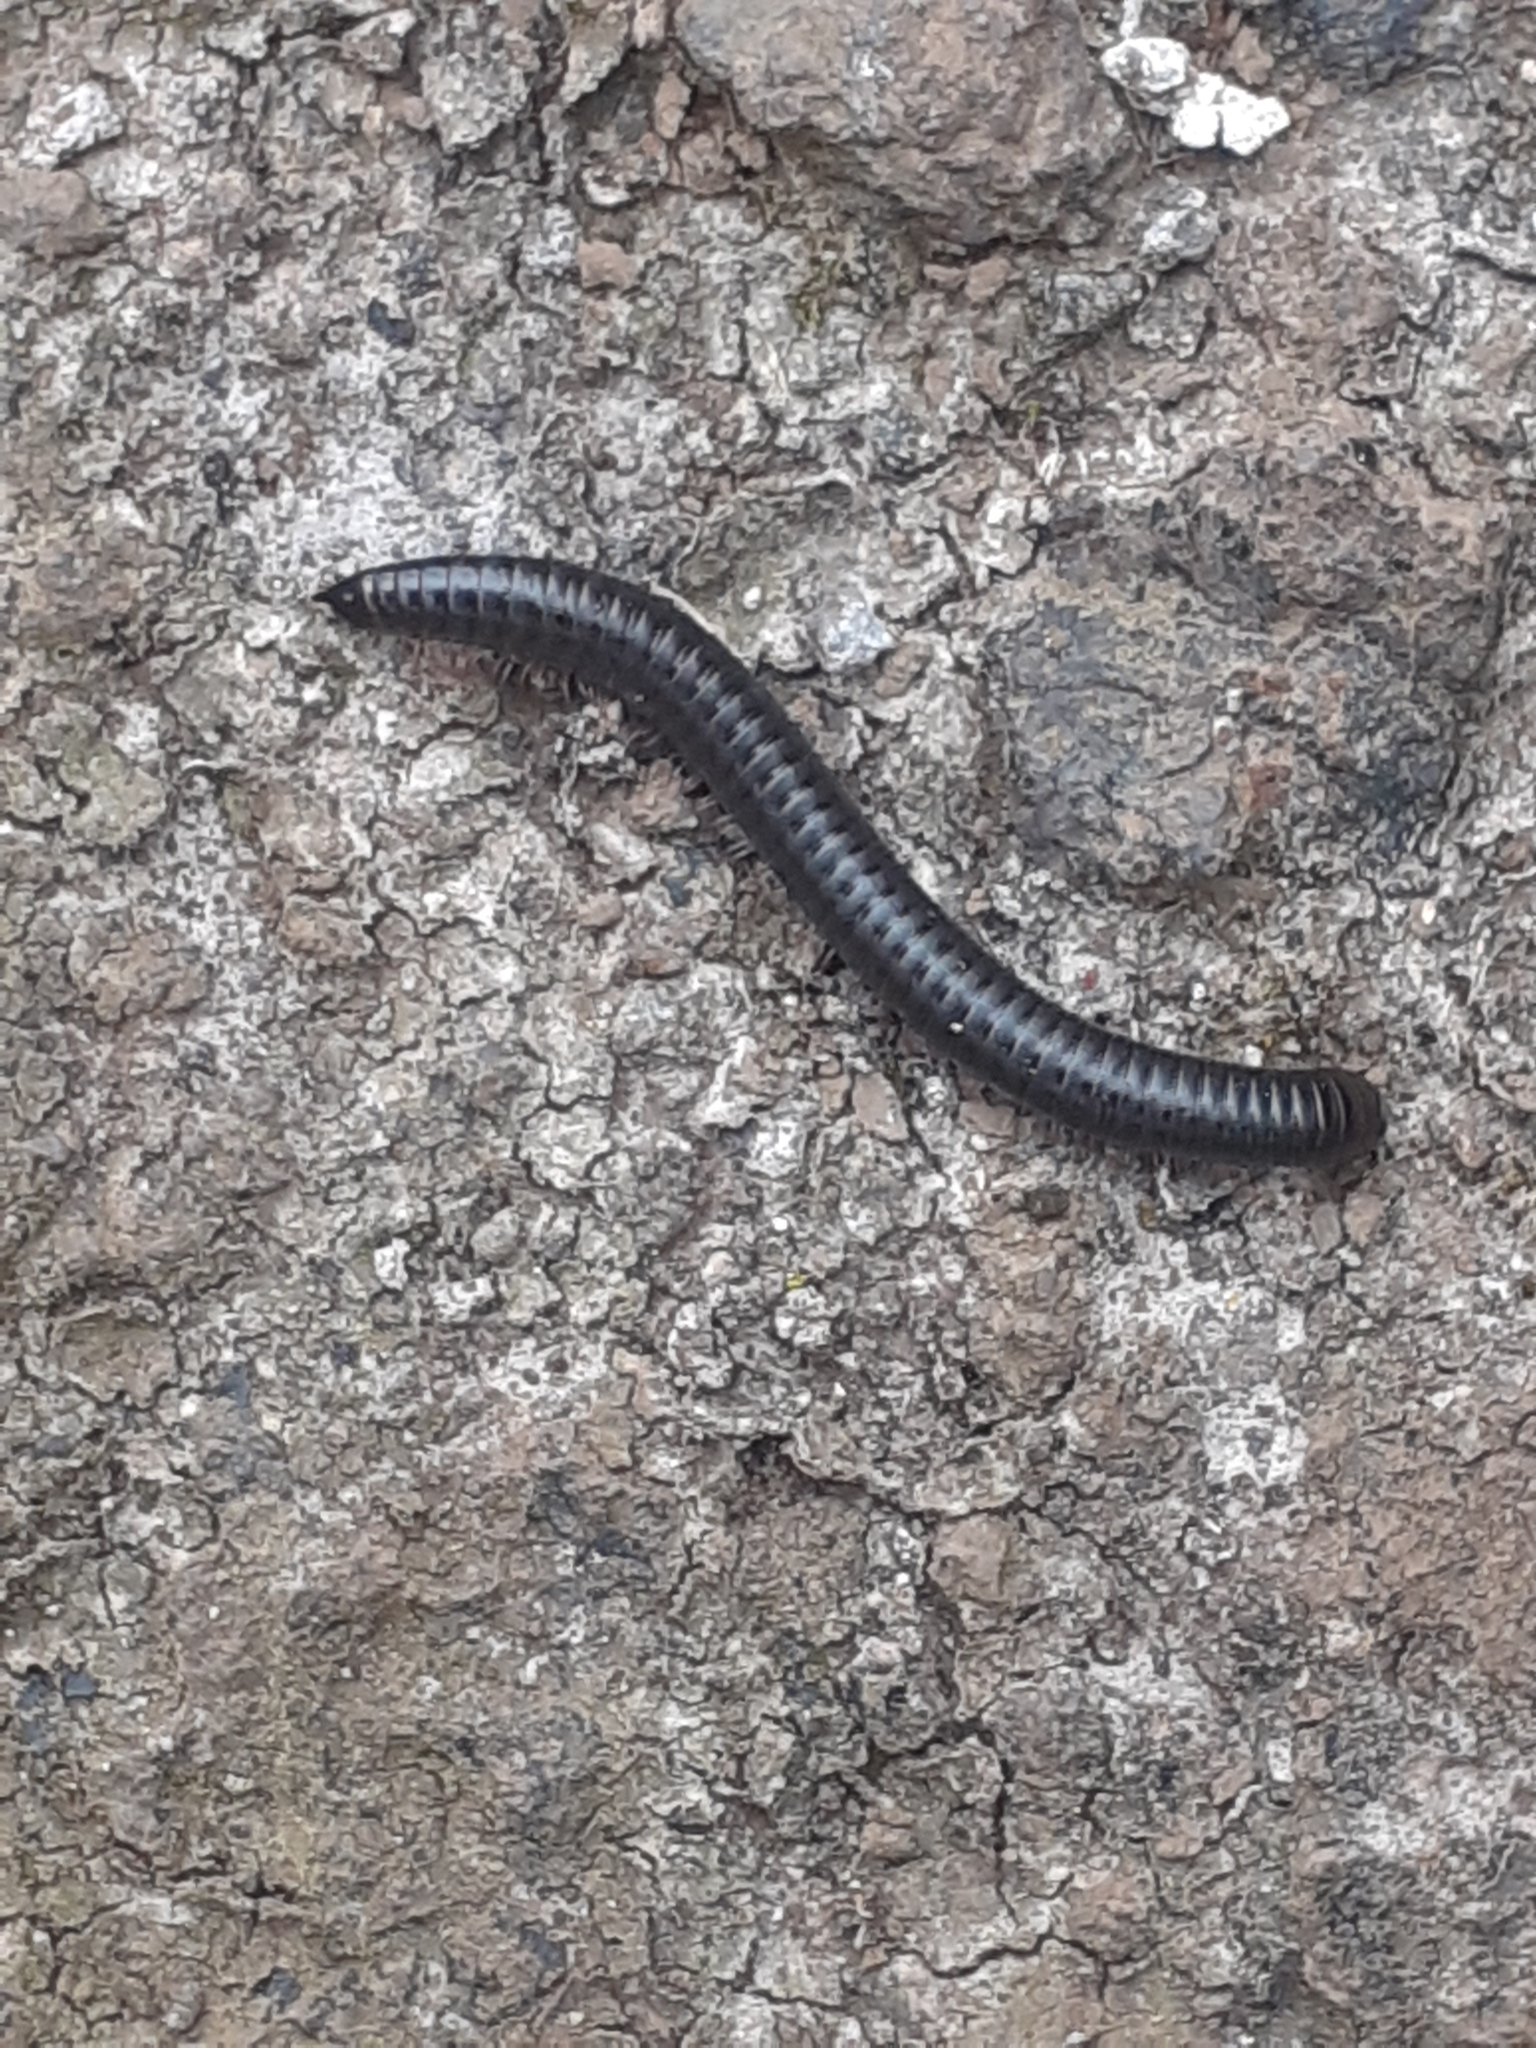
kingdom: Animalia
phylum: Arthropoda
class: Diplopoda
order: Julida
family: Julidae
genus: Ommatoiulus
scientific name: Ommatoiulus moreleti
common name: Portuguese millipede
